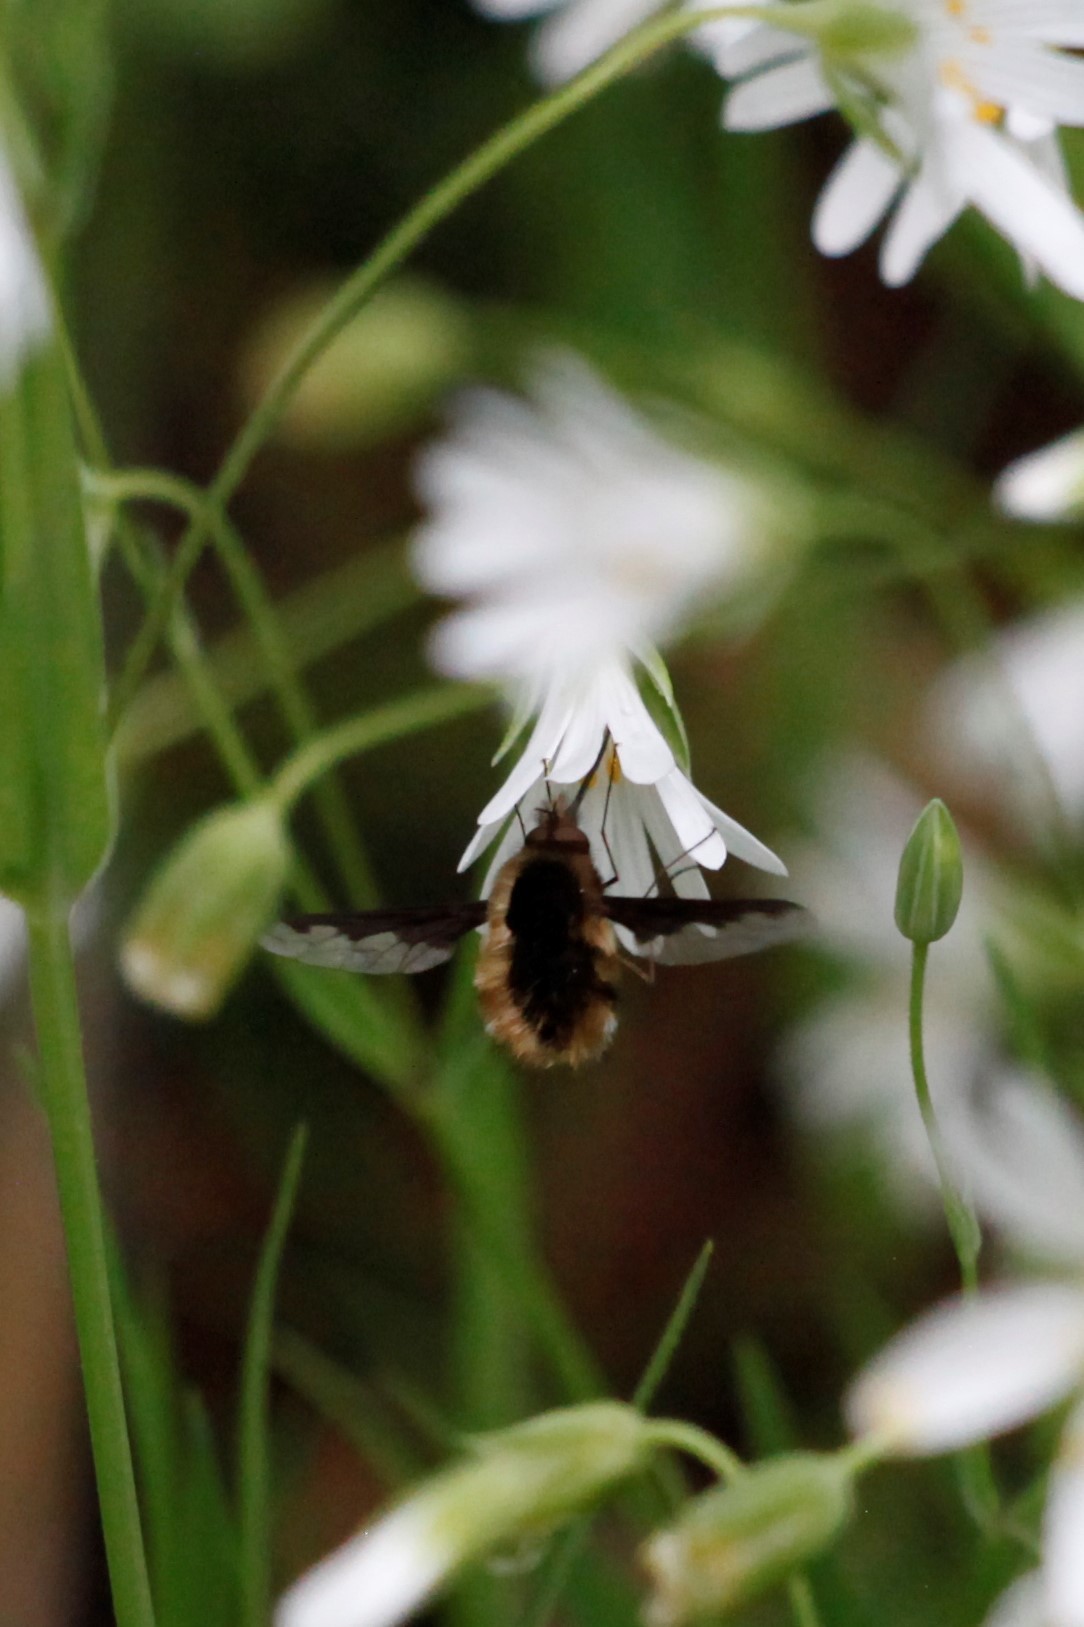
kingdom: Animalia
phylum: Arthropoda
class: Insecta
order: Diptera
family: Bombyliidae
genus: Bombylius
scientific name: Bombylius major
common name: Bee fly
